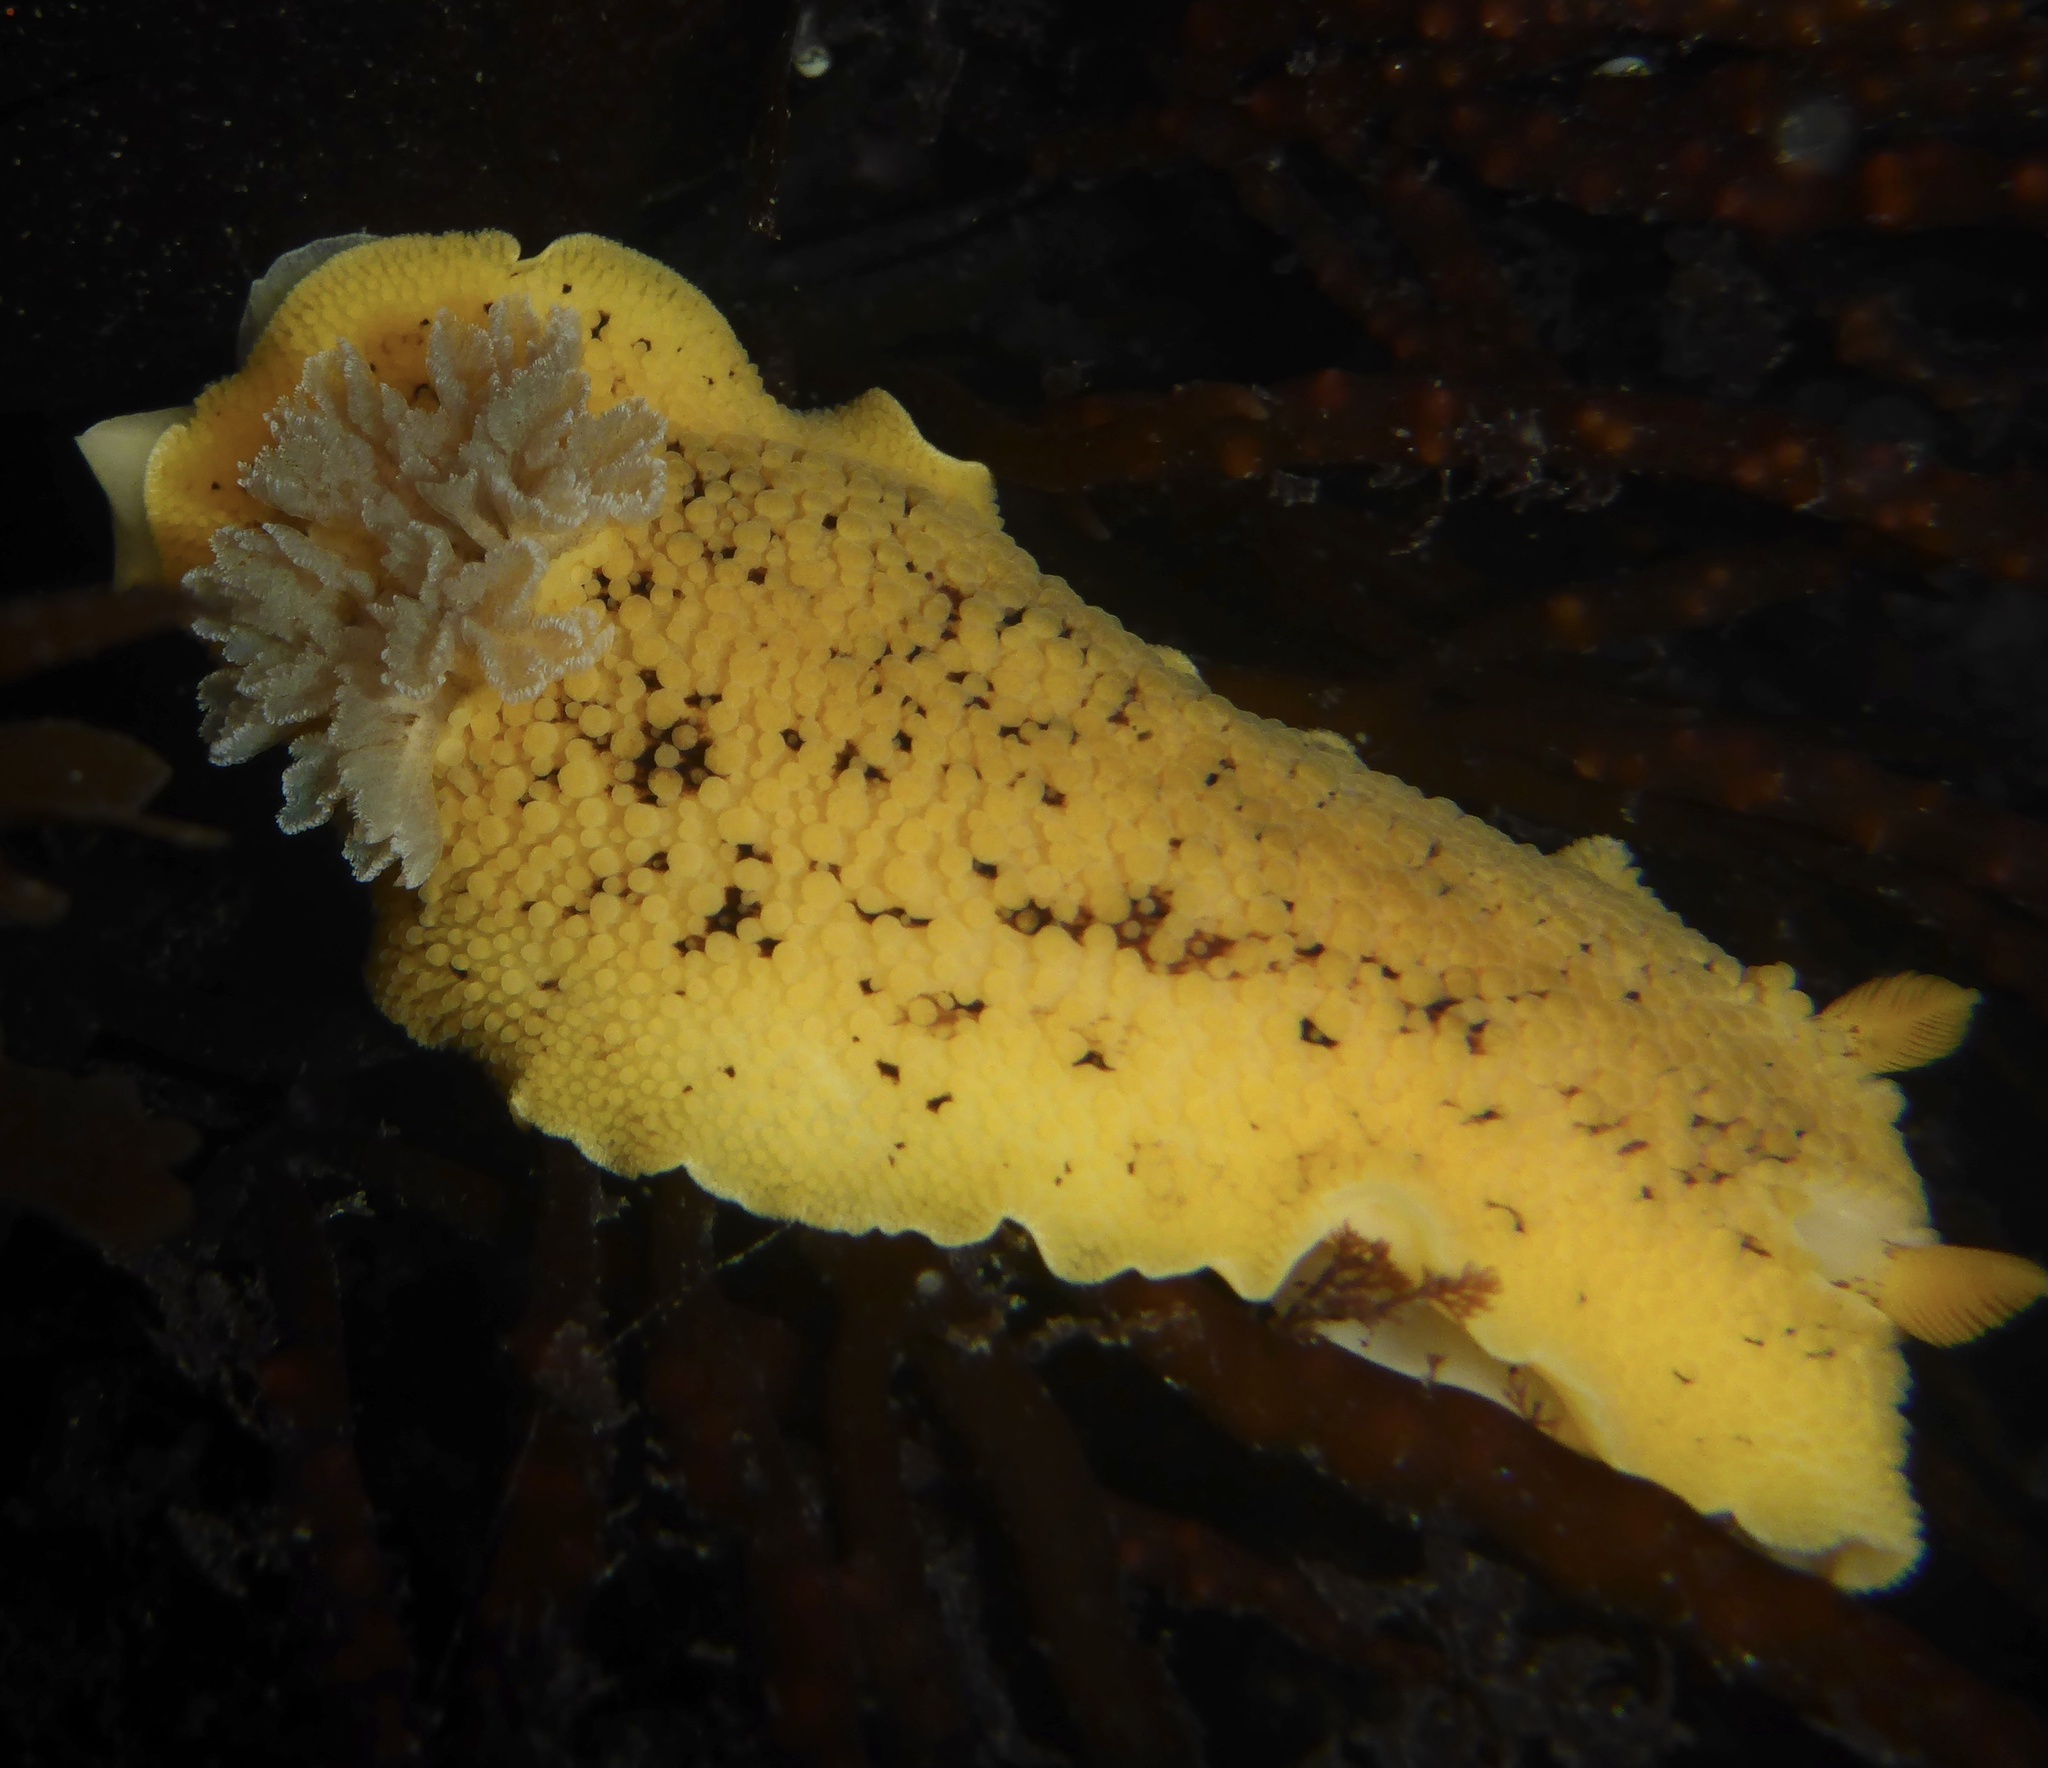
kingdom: Animalia
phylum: Mollusca
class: Gastropoda
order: Nudibranchia
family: Discodorididae
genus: Peltodoris
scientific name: Peltodoris nobilis
